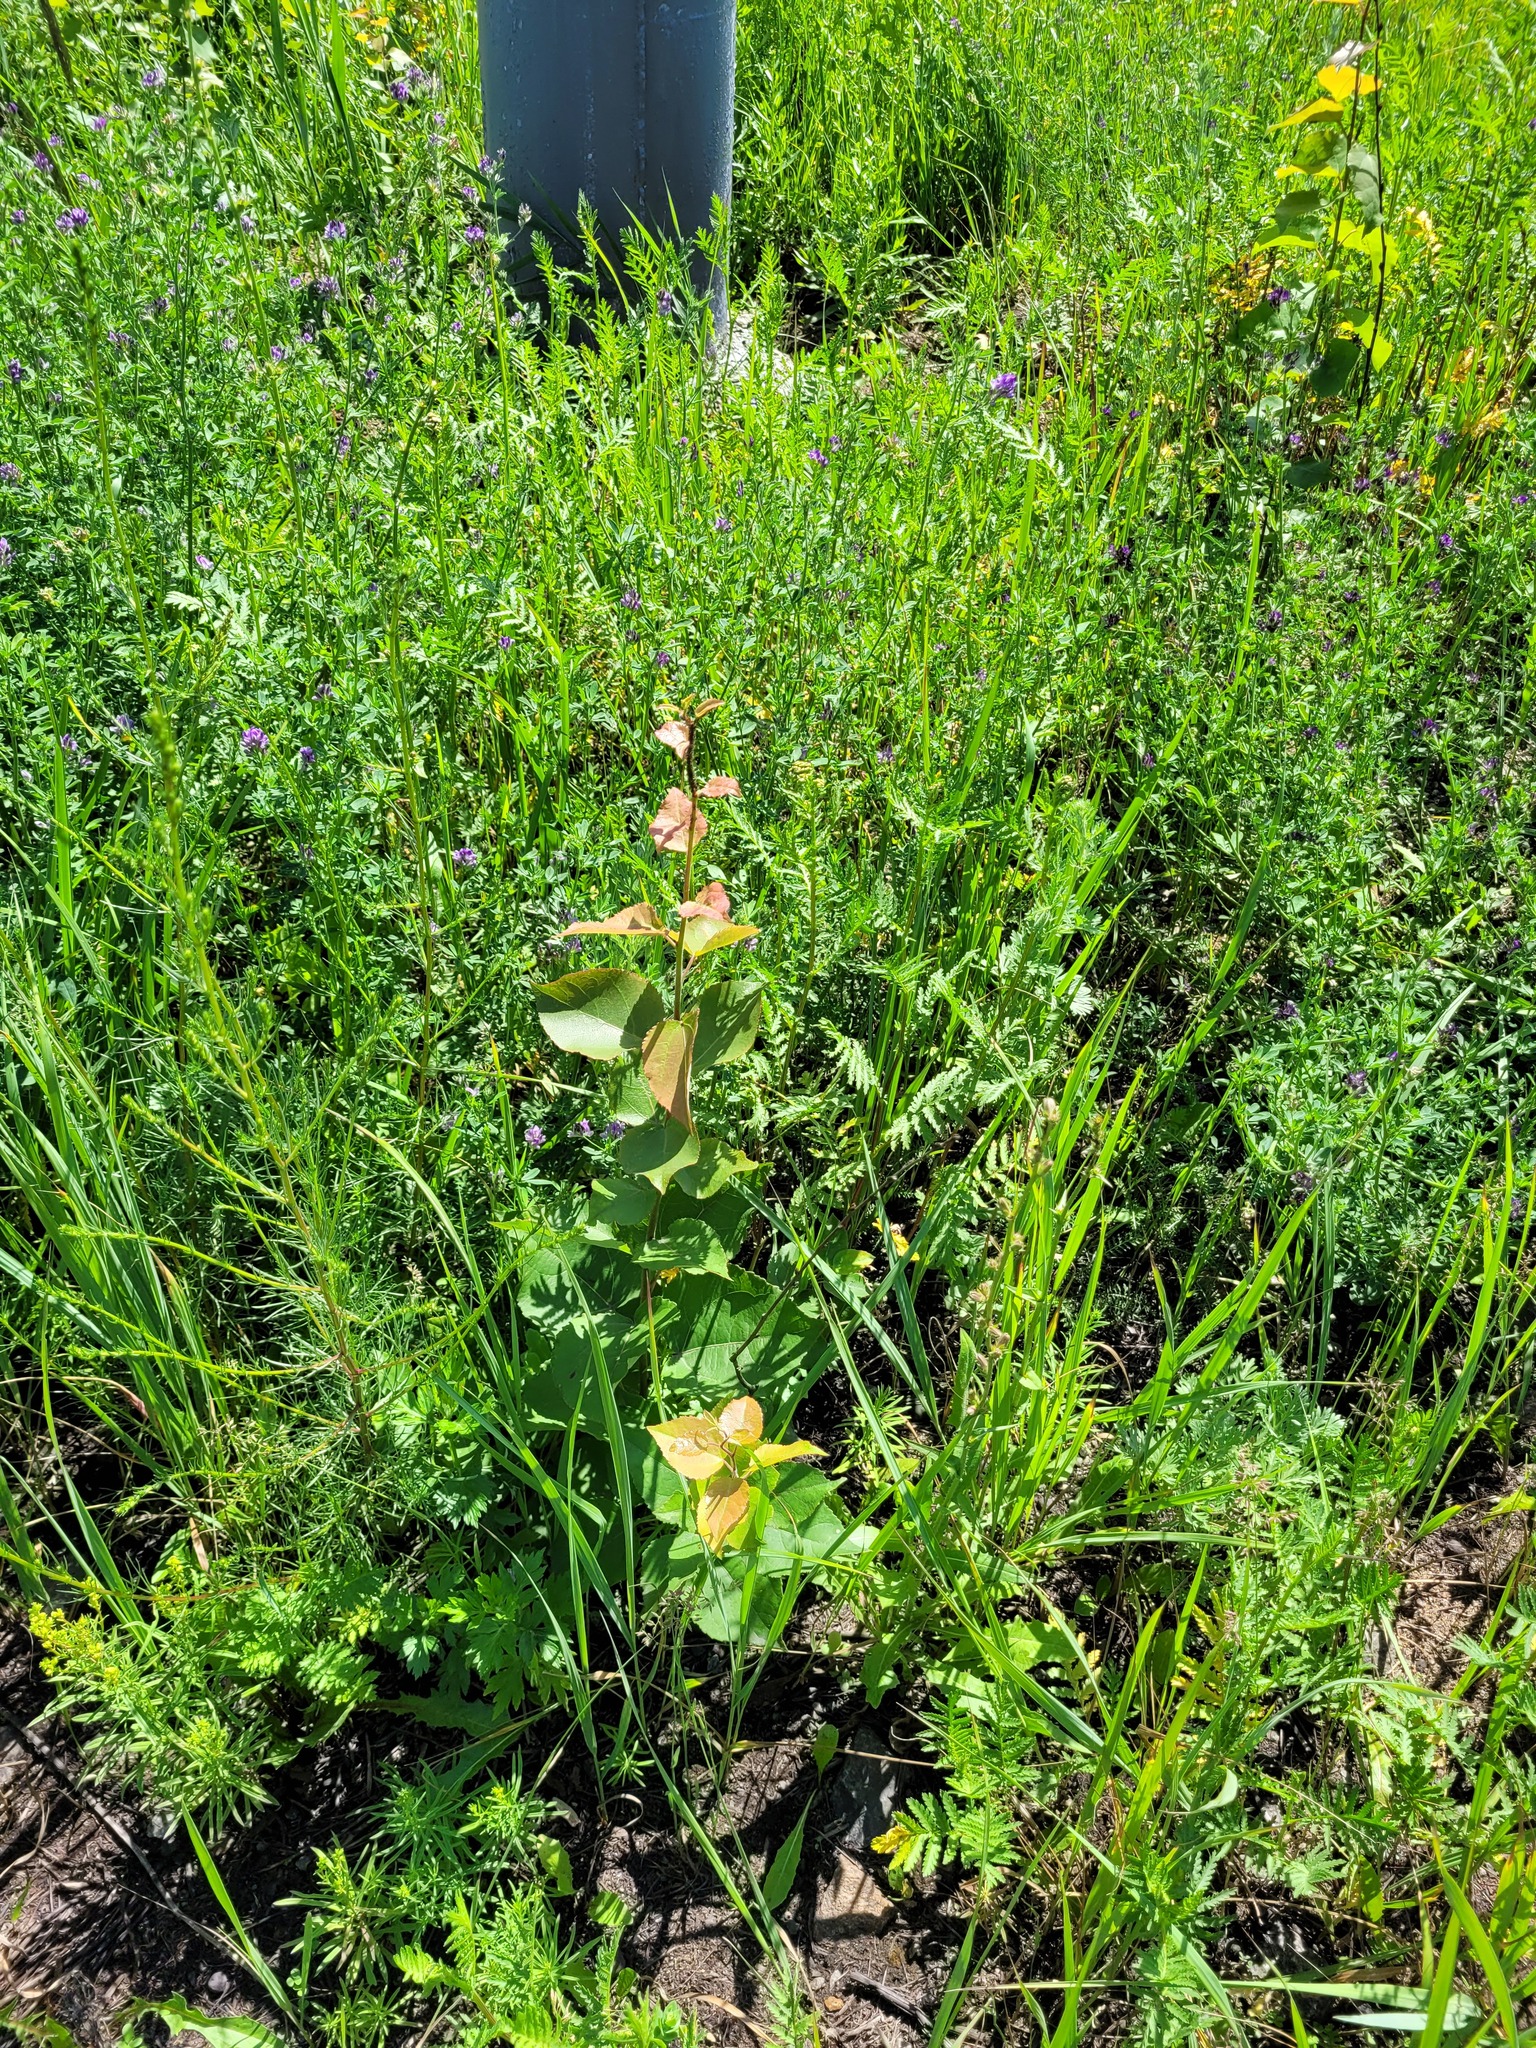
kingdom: Plantae
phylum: Tracheophyta
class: Magnoliopsida
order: Malpighiales
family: Salicaceae
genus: Populus
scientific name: Populus tremula
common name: European aspen
